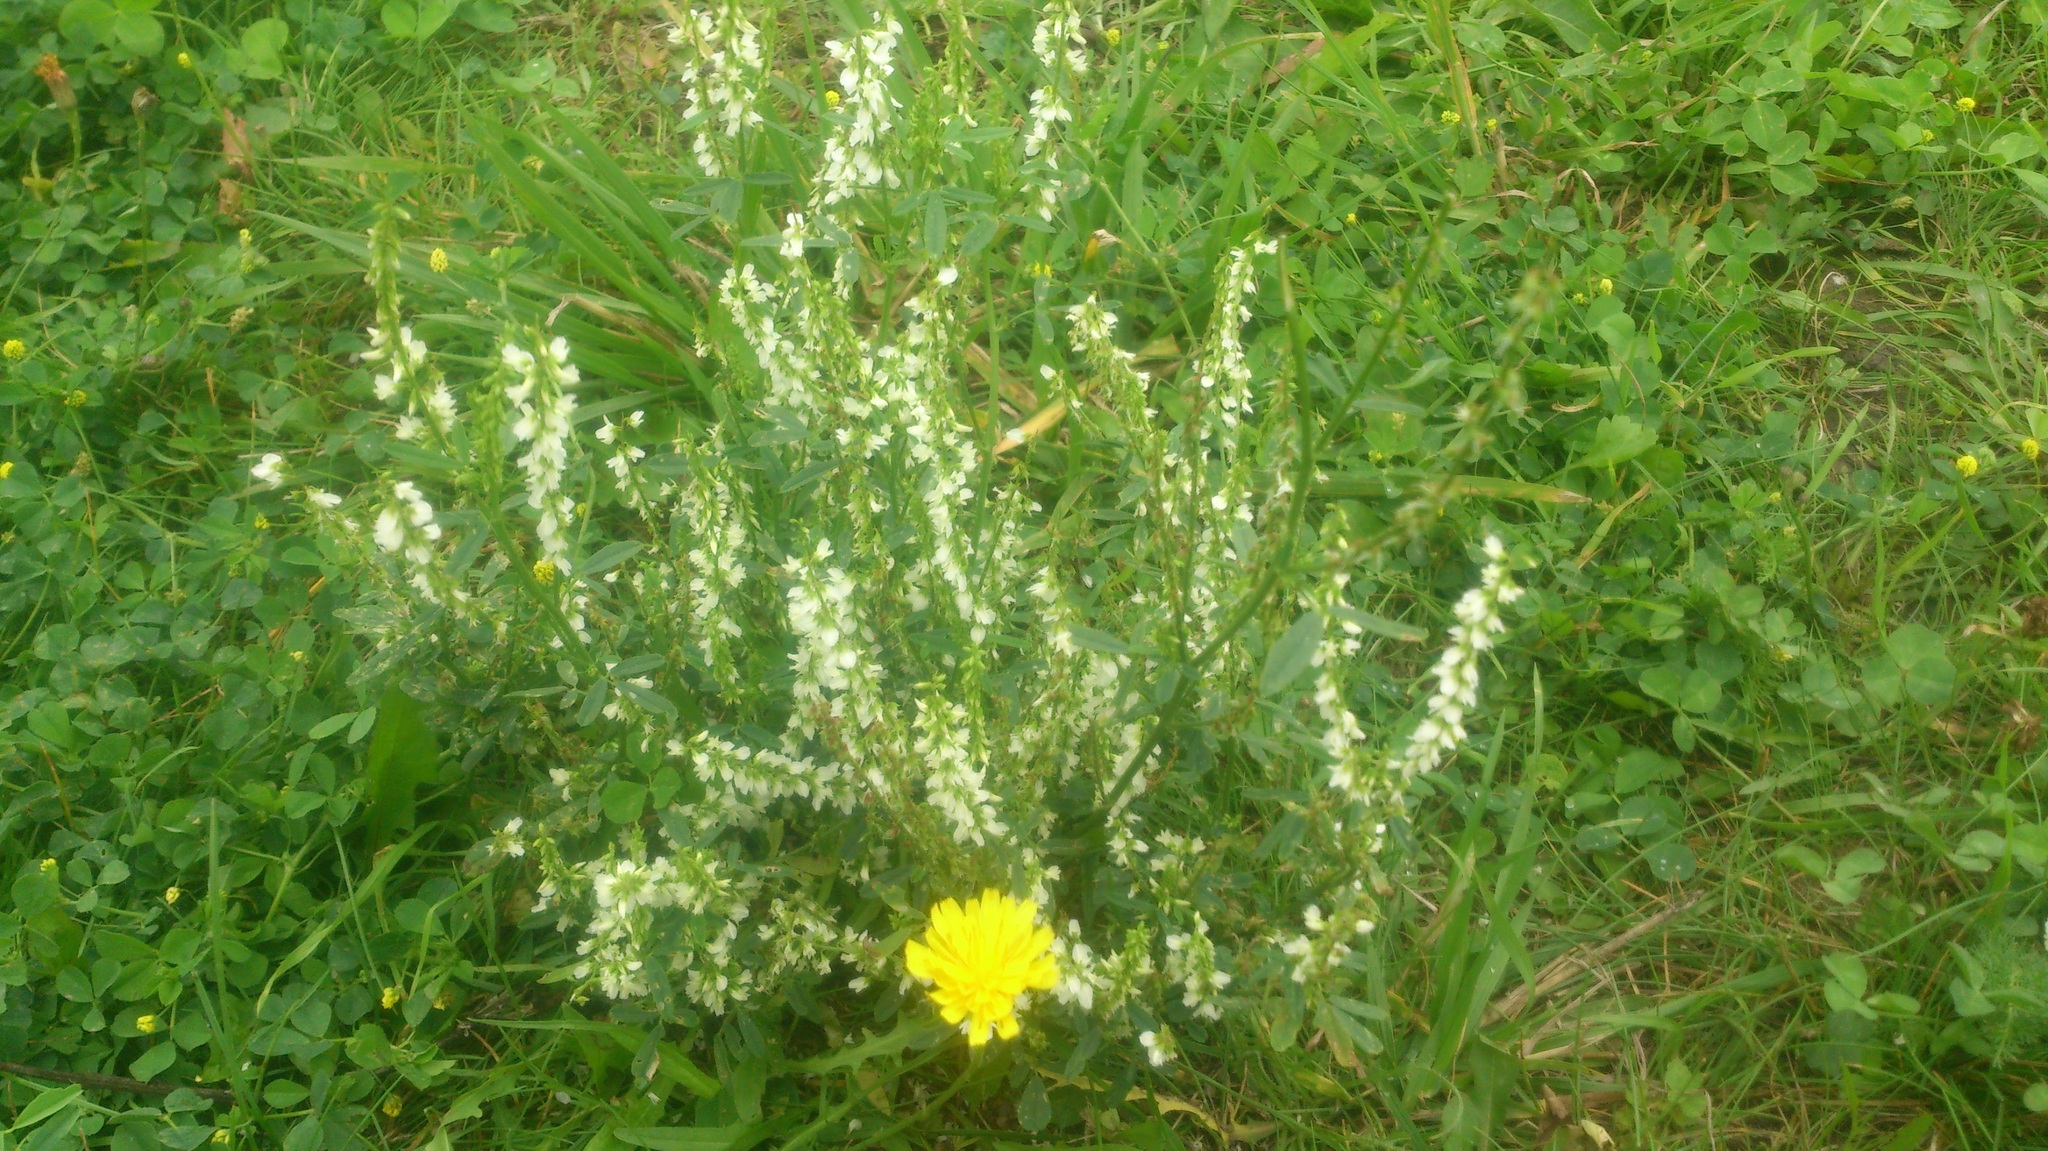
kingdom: Plantae
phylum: Tracheophyta
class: Magnoliopsida
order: Fabales
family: Fabaceae
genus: Melilotus
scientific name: Melilotus albus
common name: White melilot
